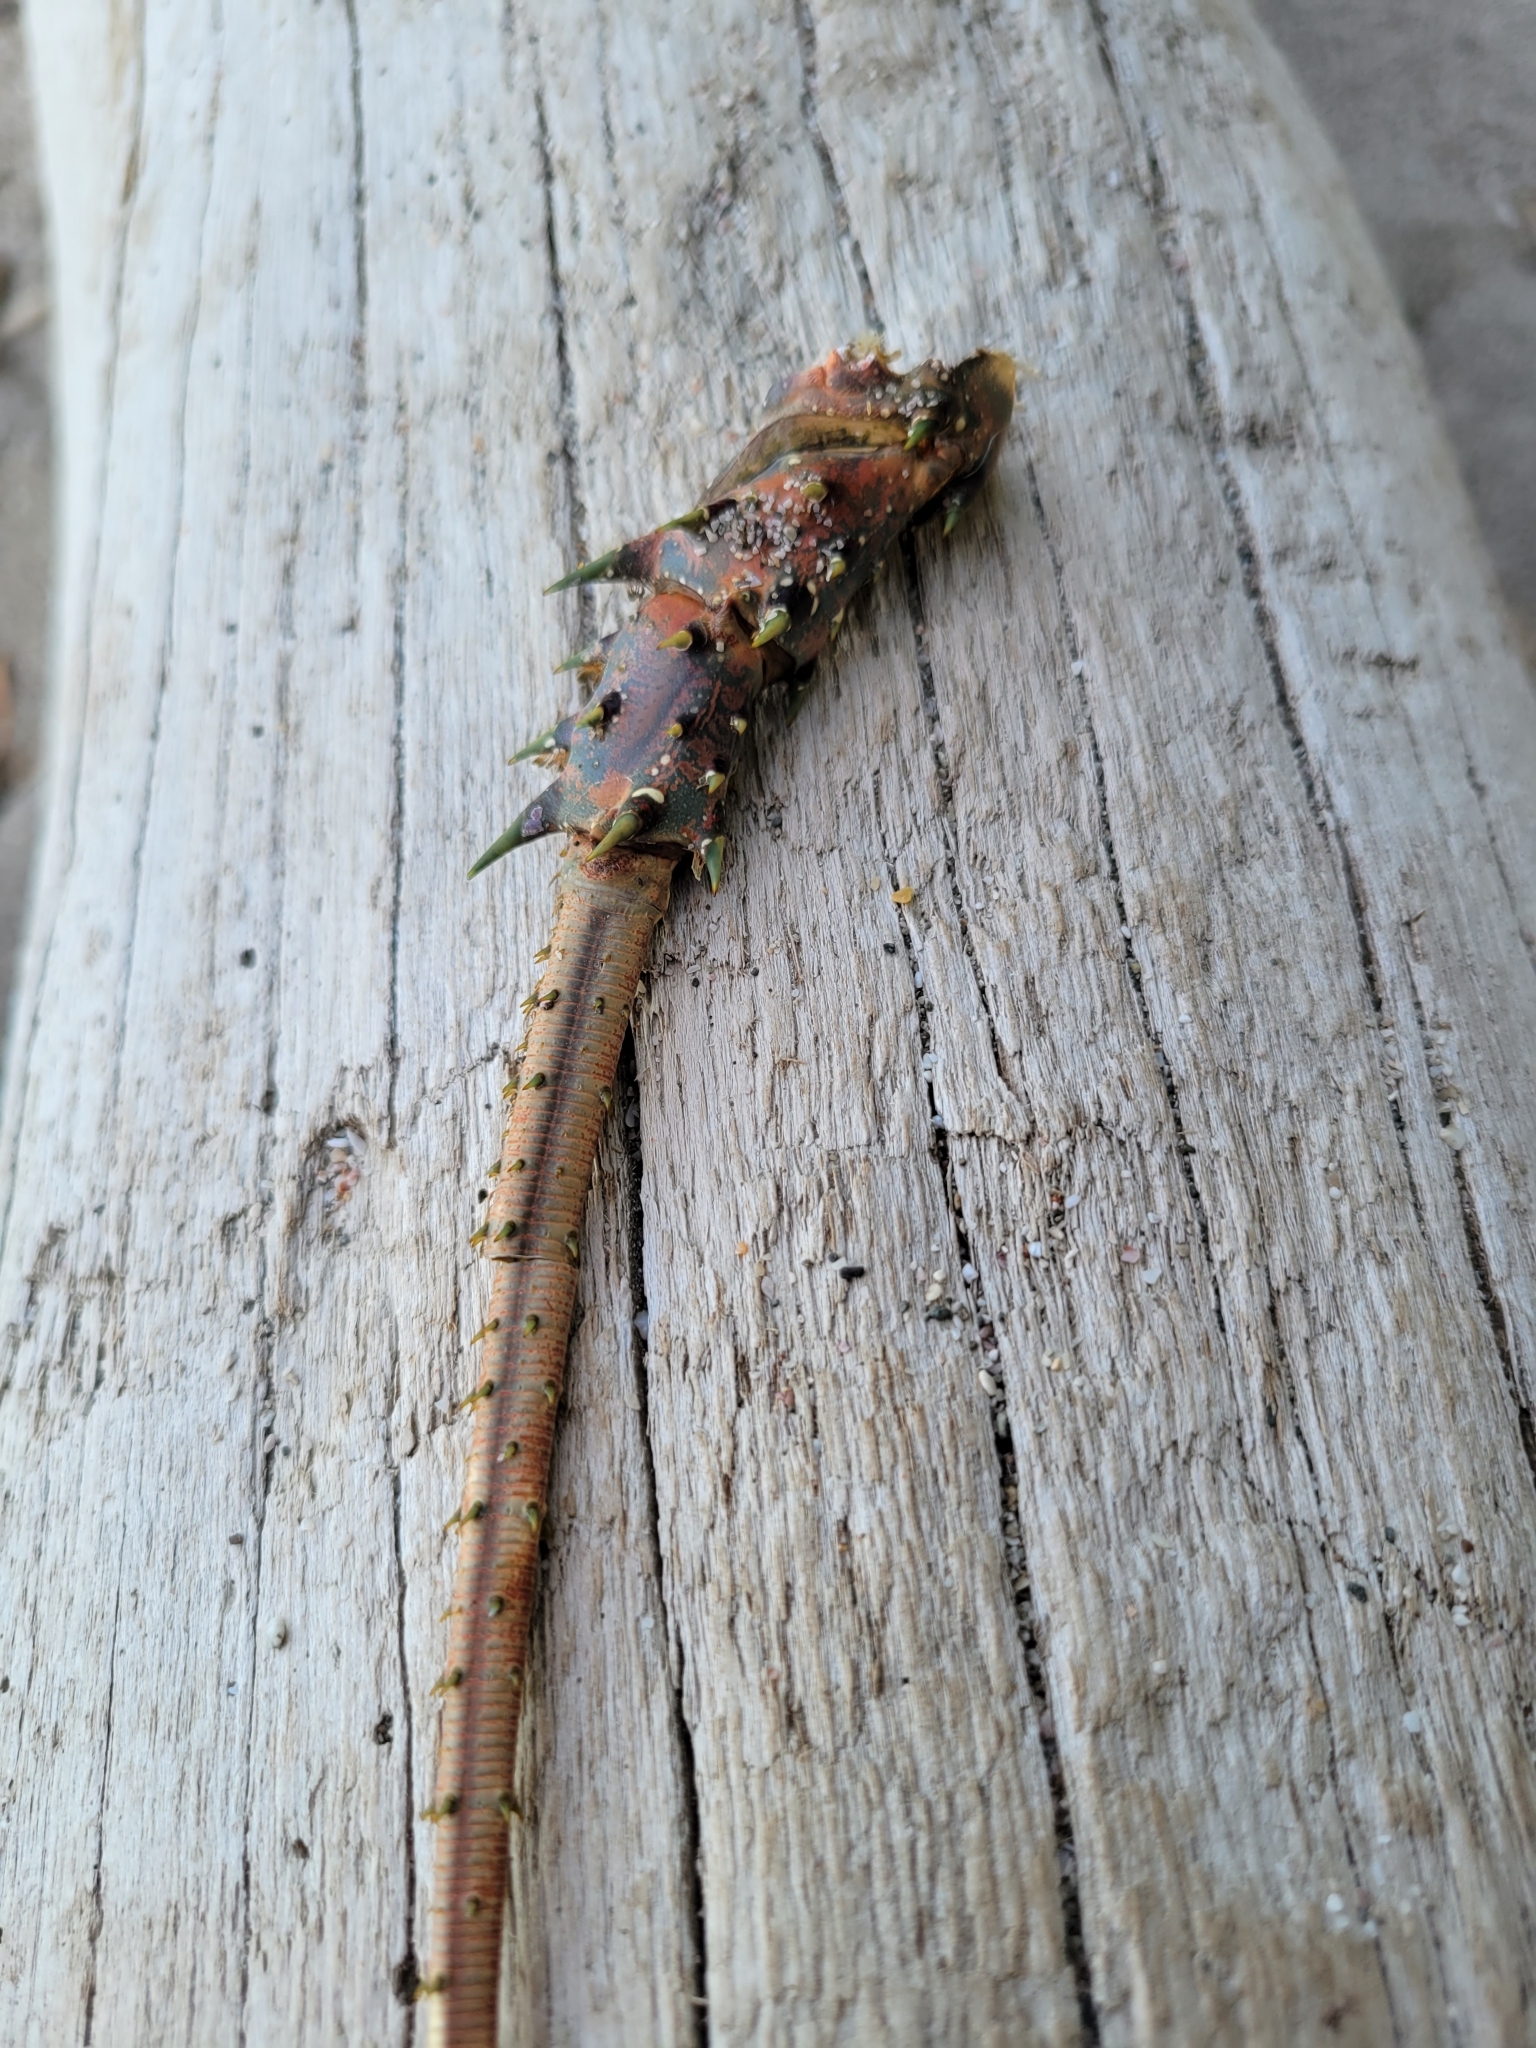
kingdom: Animalia
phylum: Arthropoda
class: Malacostraca
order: Decapoda
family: Palinuridae
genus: Panulirus
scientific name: Panulirus gracilis
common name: Green spiny lobster
